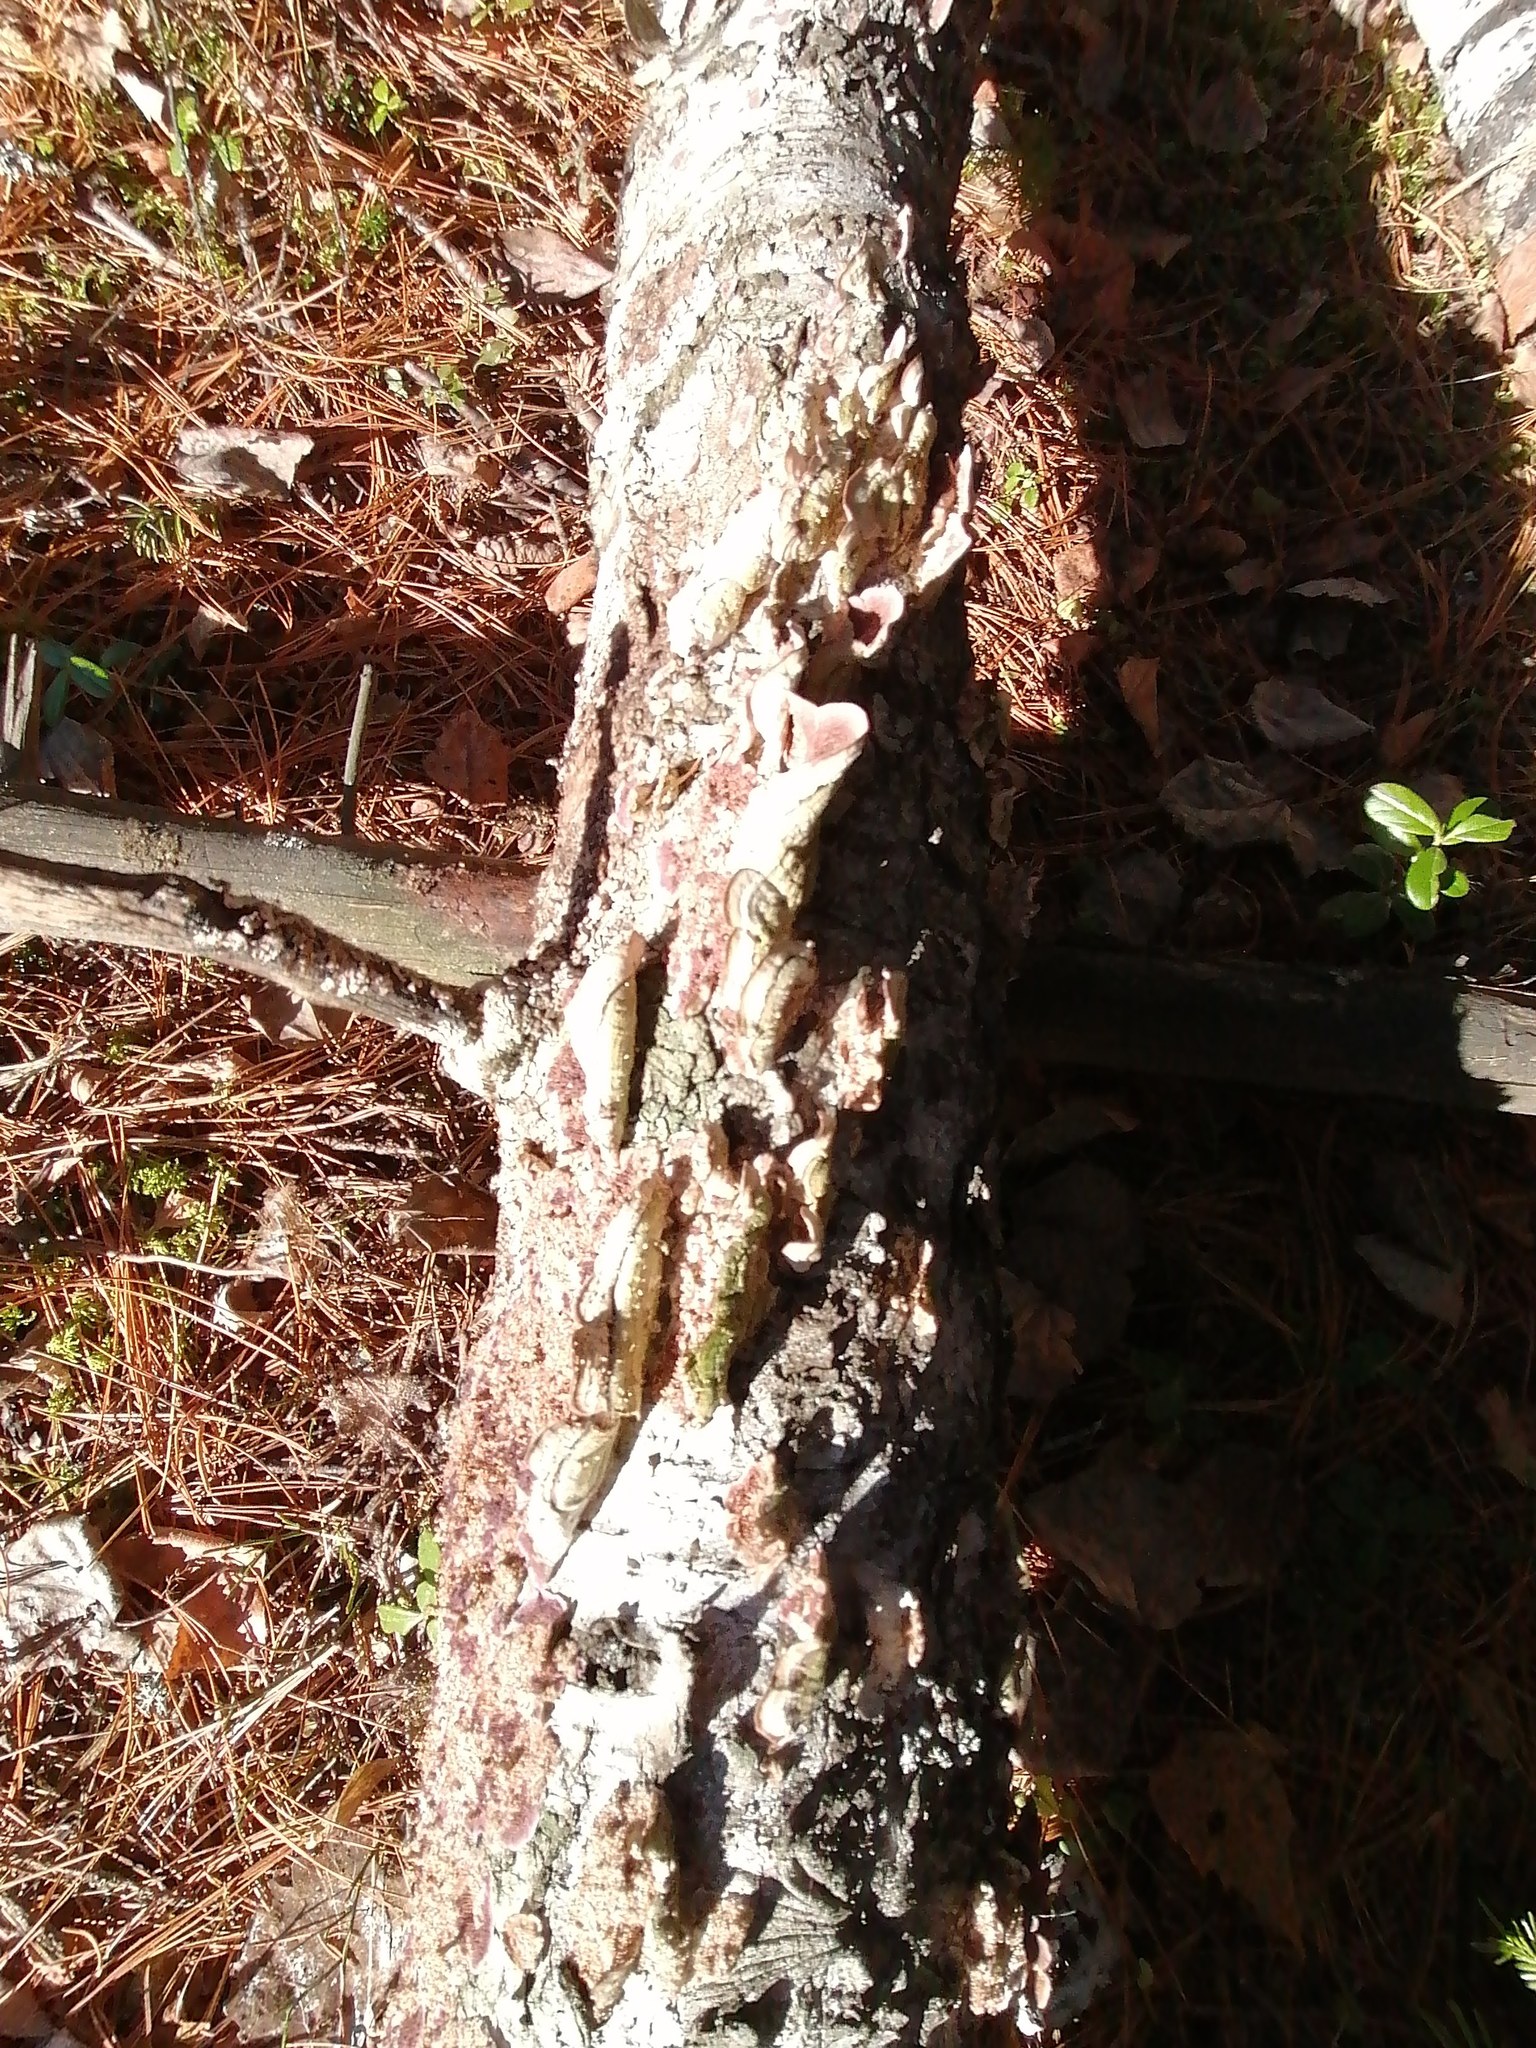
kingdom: Fungi
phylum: Basidiomycota
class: Agaricomycetes
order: Hymenochaetales
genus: Trichaptum
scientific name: Trichaptum biforme
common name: Violet-toothed polypore
